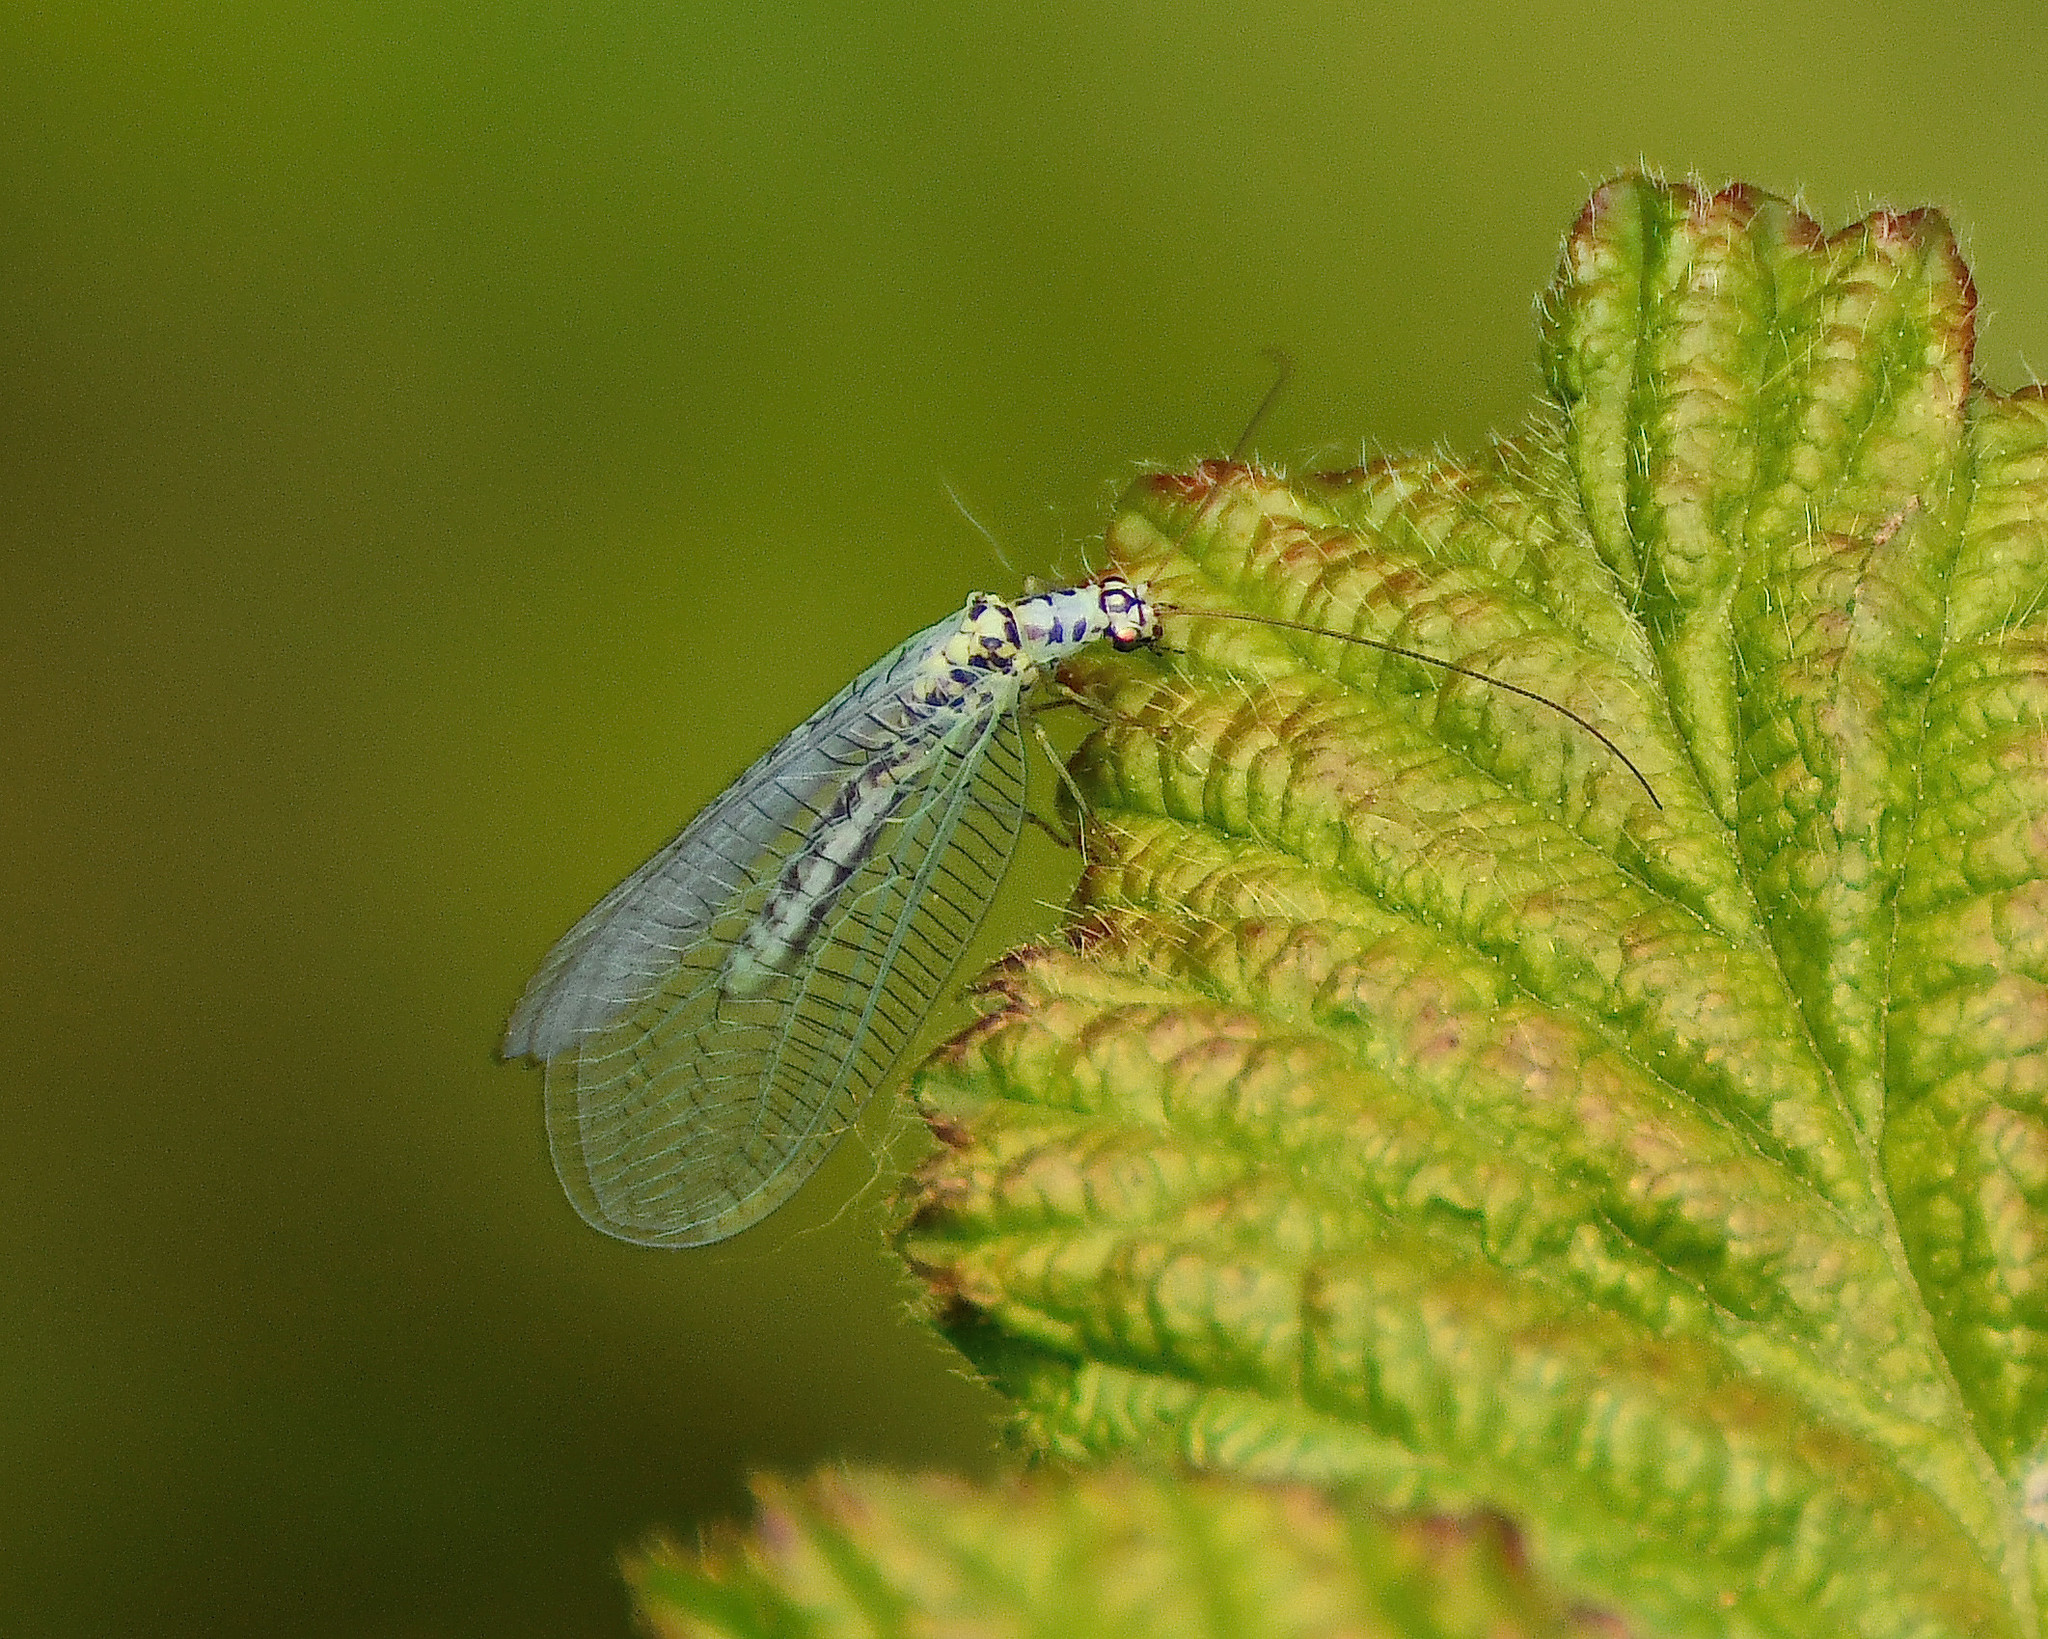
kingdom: Animalia
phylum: Arthropoda
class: Insecta
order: Neuroptera
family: Chrysopidae
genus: Chrysopa
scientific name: Chrysopa perla
